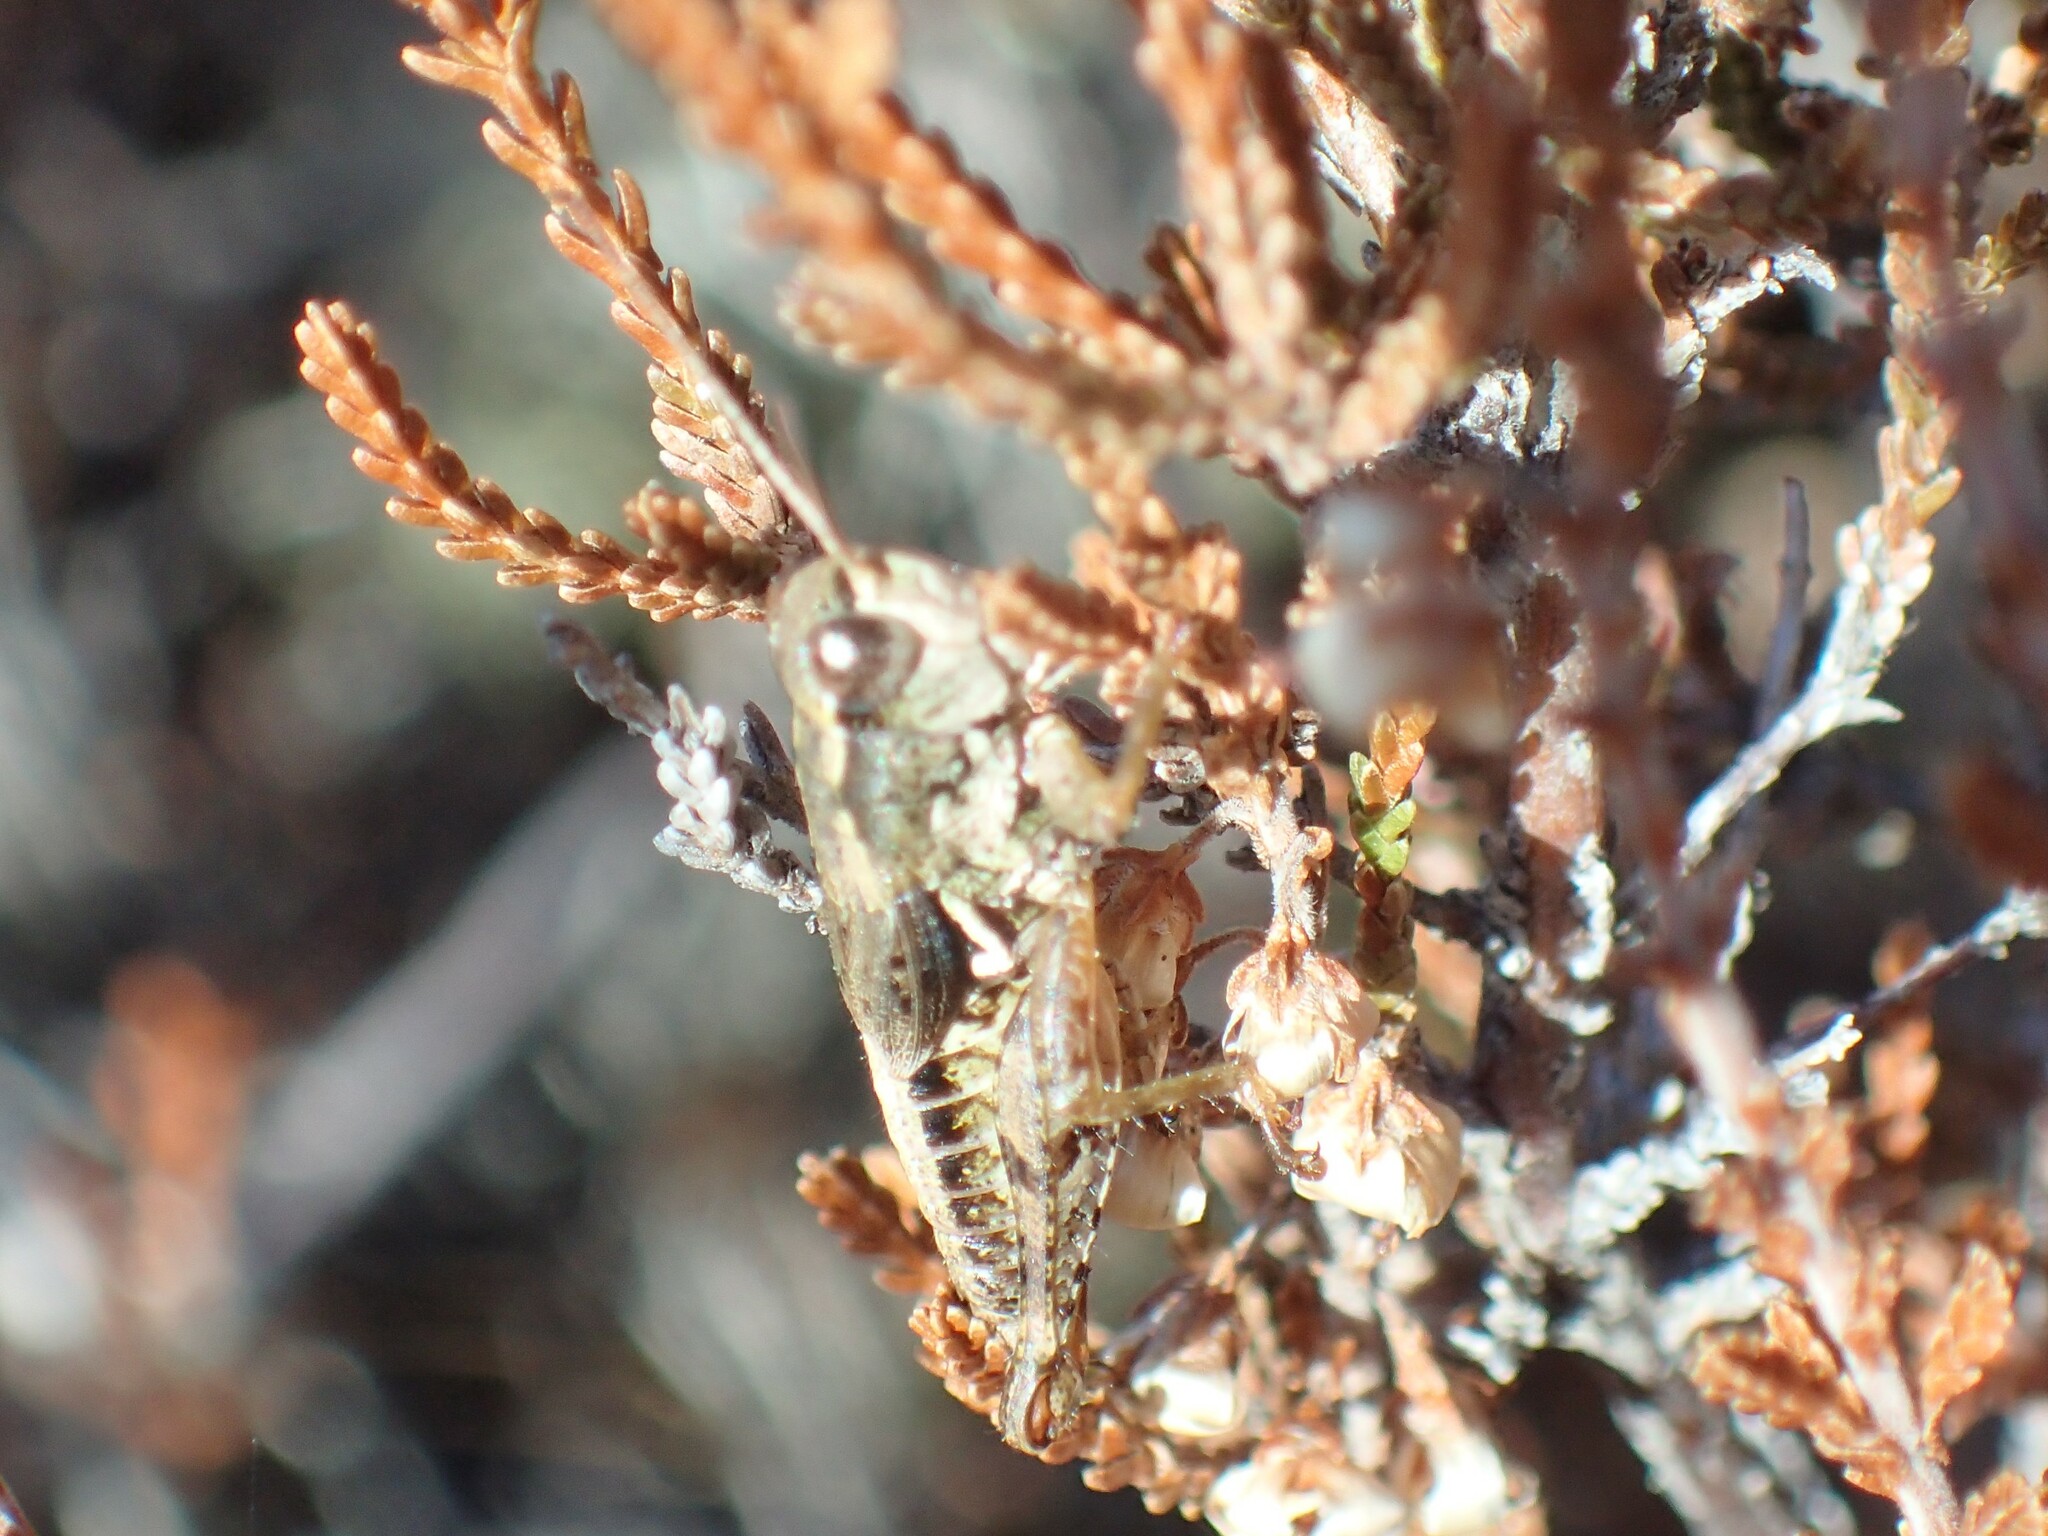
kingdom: Animalia
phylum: Arthropoda
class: Insecta
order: Orthoptera
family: Acrididae
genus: Phaulacridium
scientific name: Phaulacridium marginale
